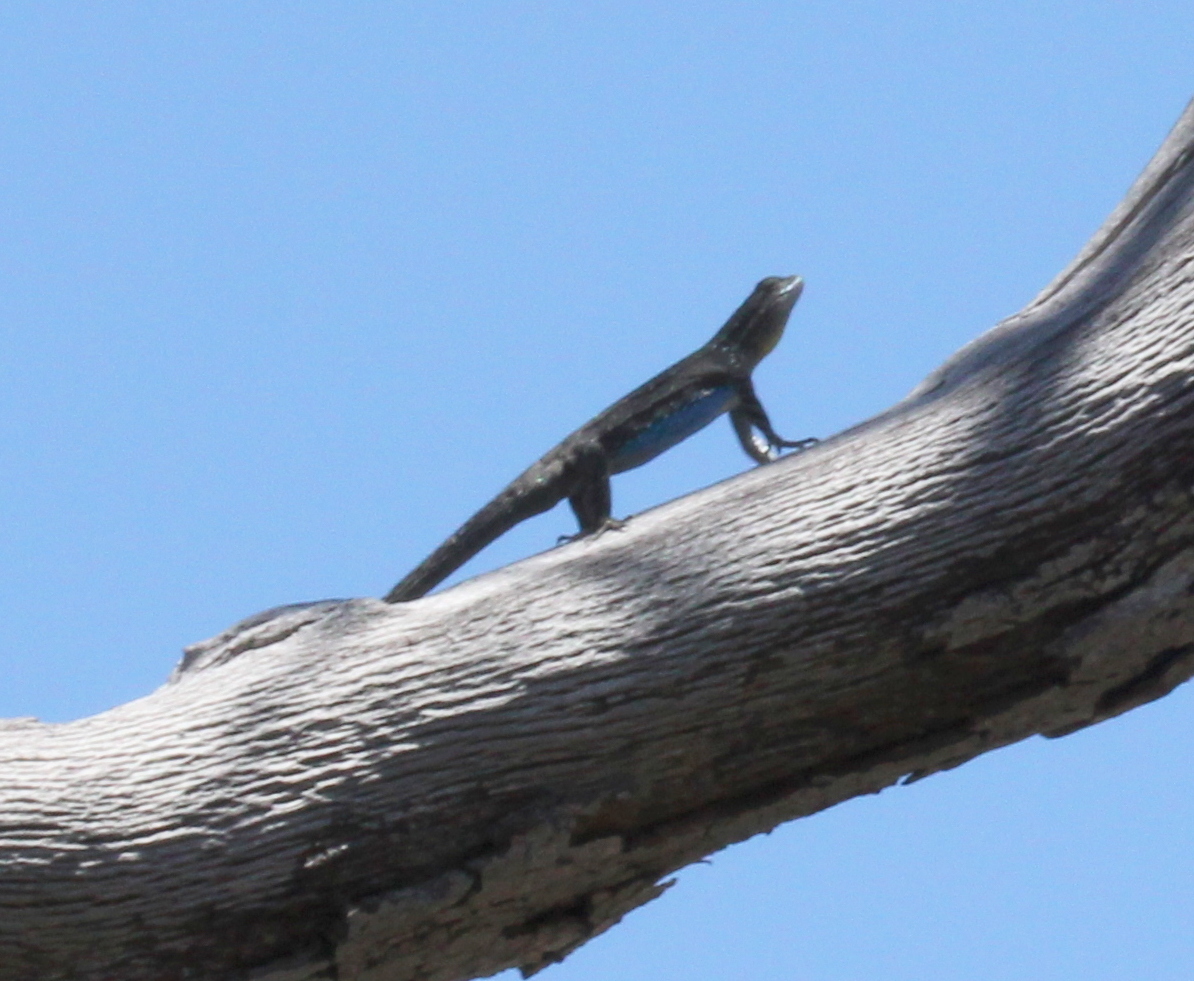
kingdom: Animalia
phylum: Chordata
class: Squamata
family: Phrynosomatidae
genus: Sceloporus
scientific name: Sceloporus occidentalis
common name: Western fence lizard
